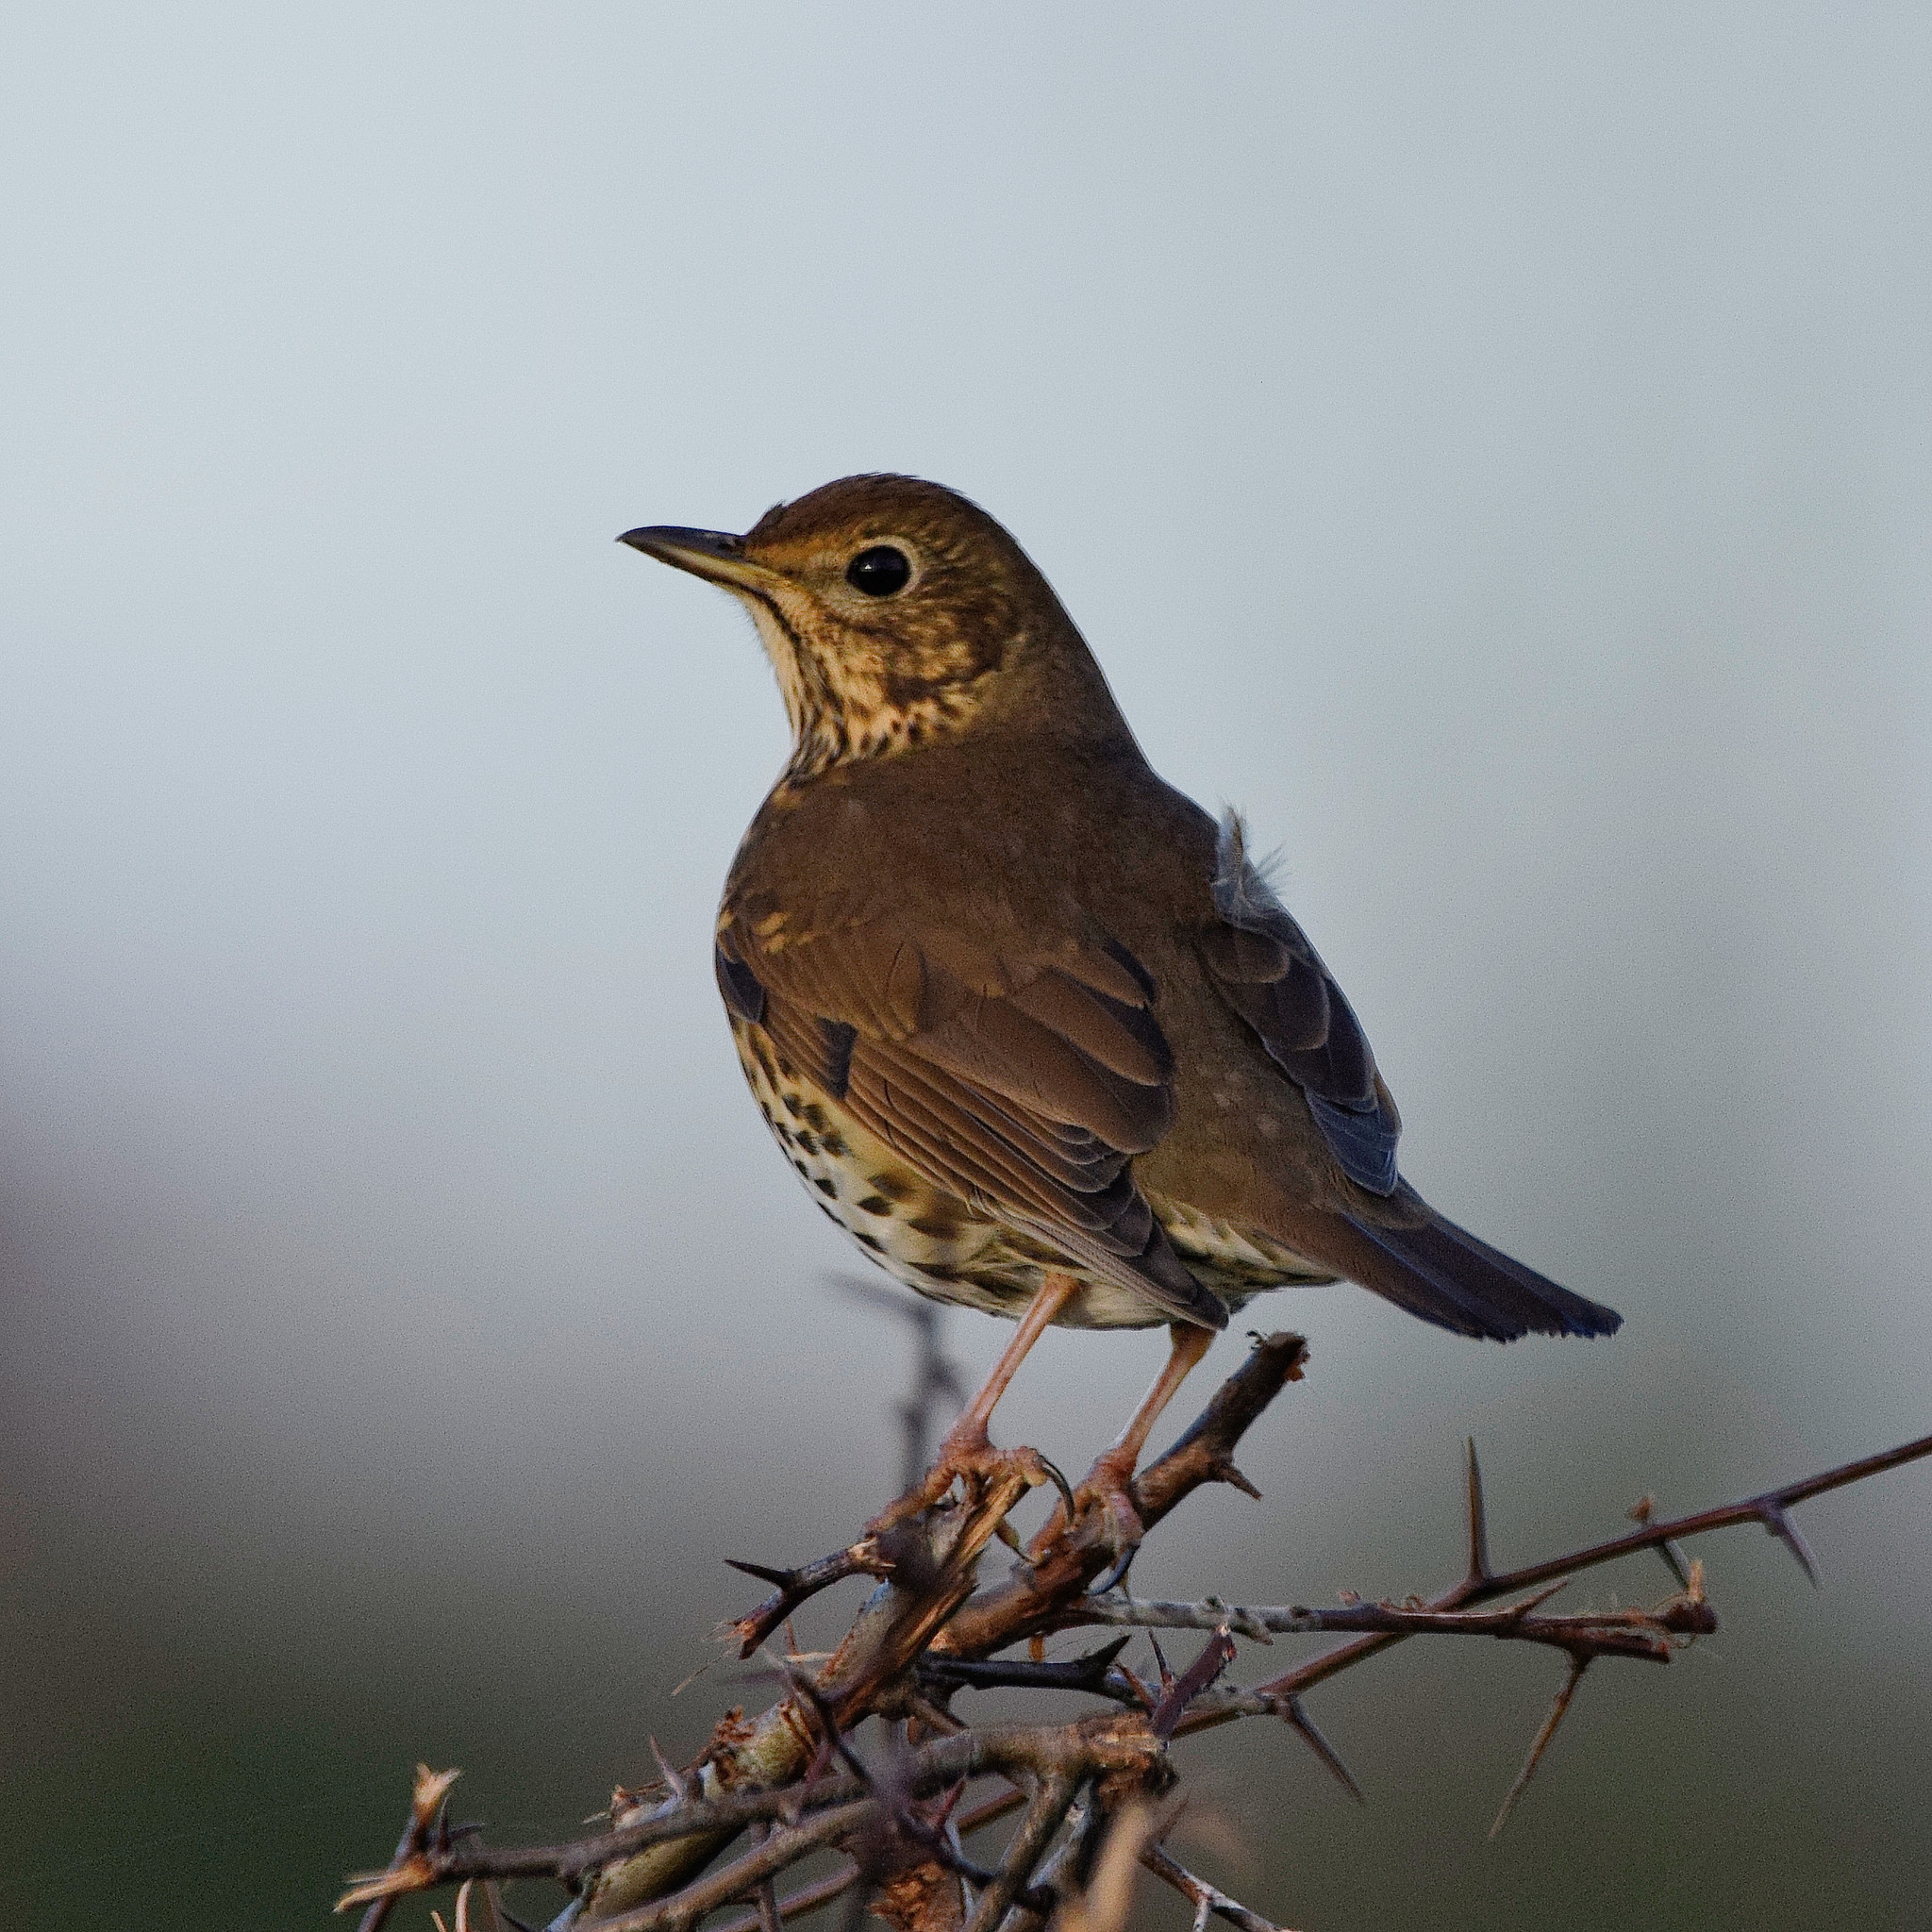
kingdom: Animalia
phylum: Chordata
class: Aves
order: Passeriformes
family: Turdidae
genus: Turdus
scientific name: Turdus philomelos
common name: Song thrush
